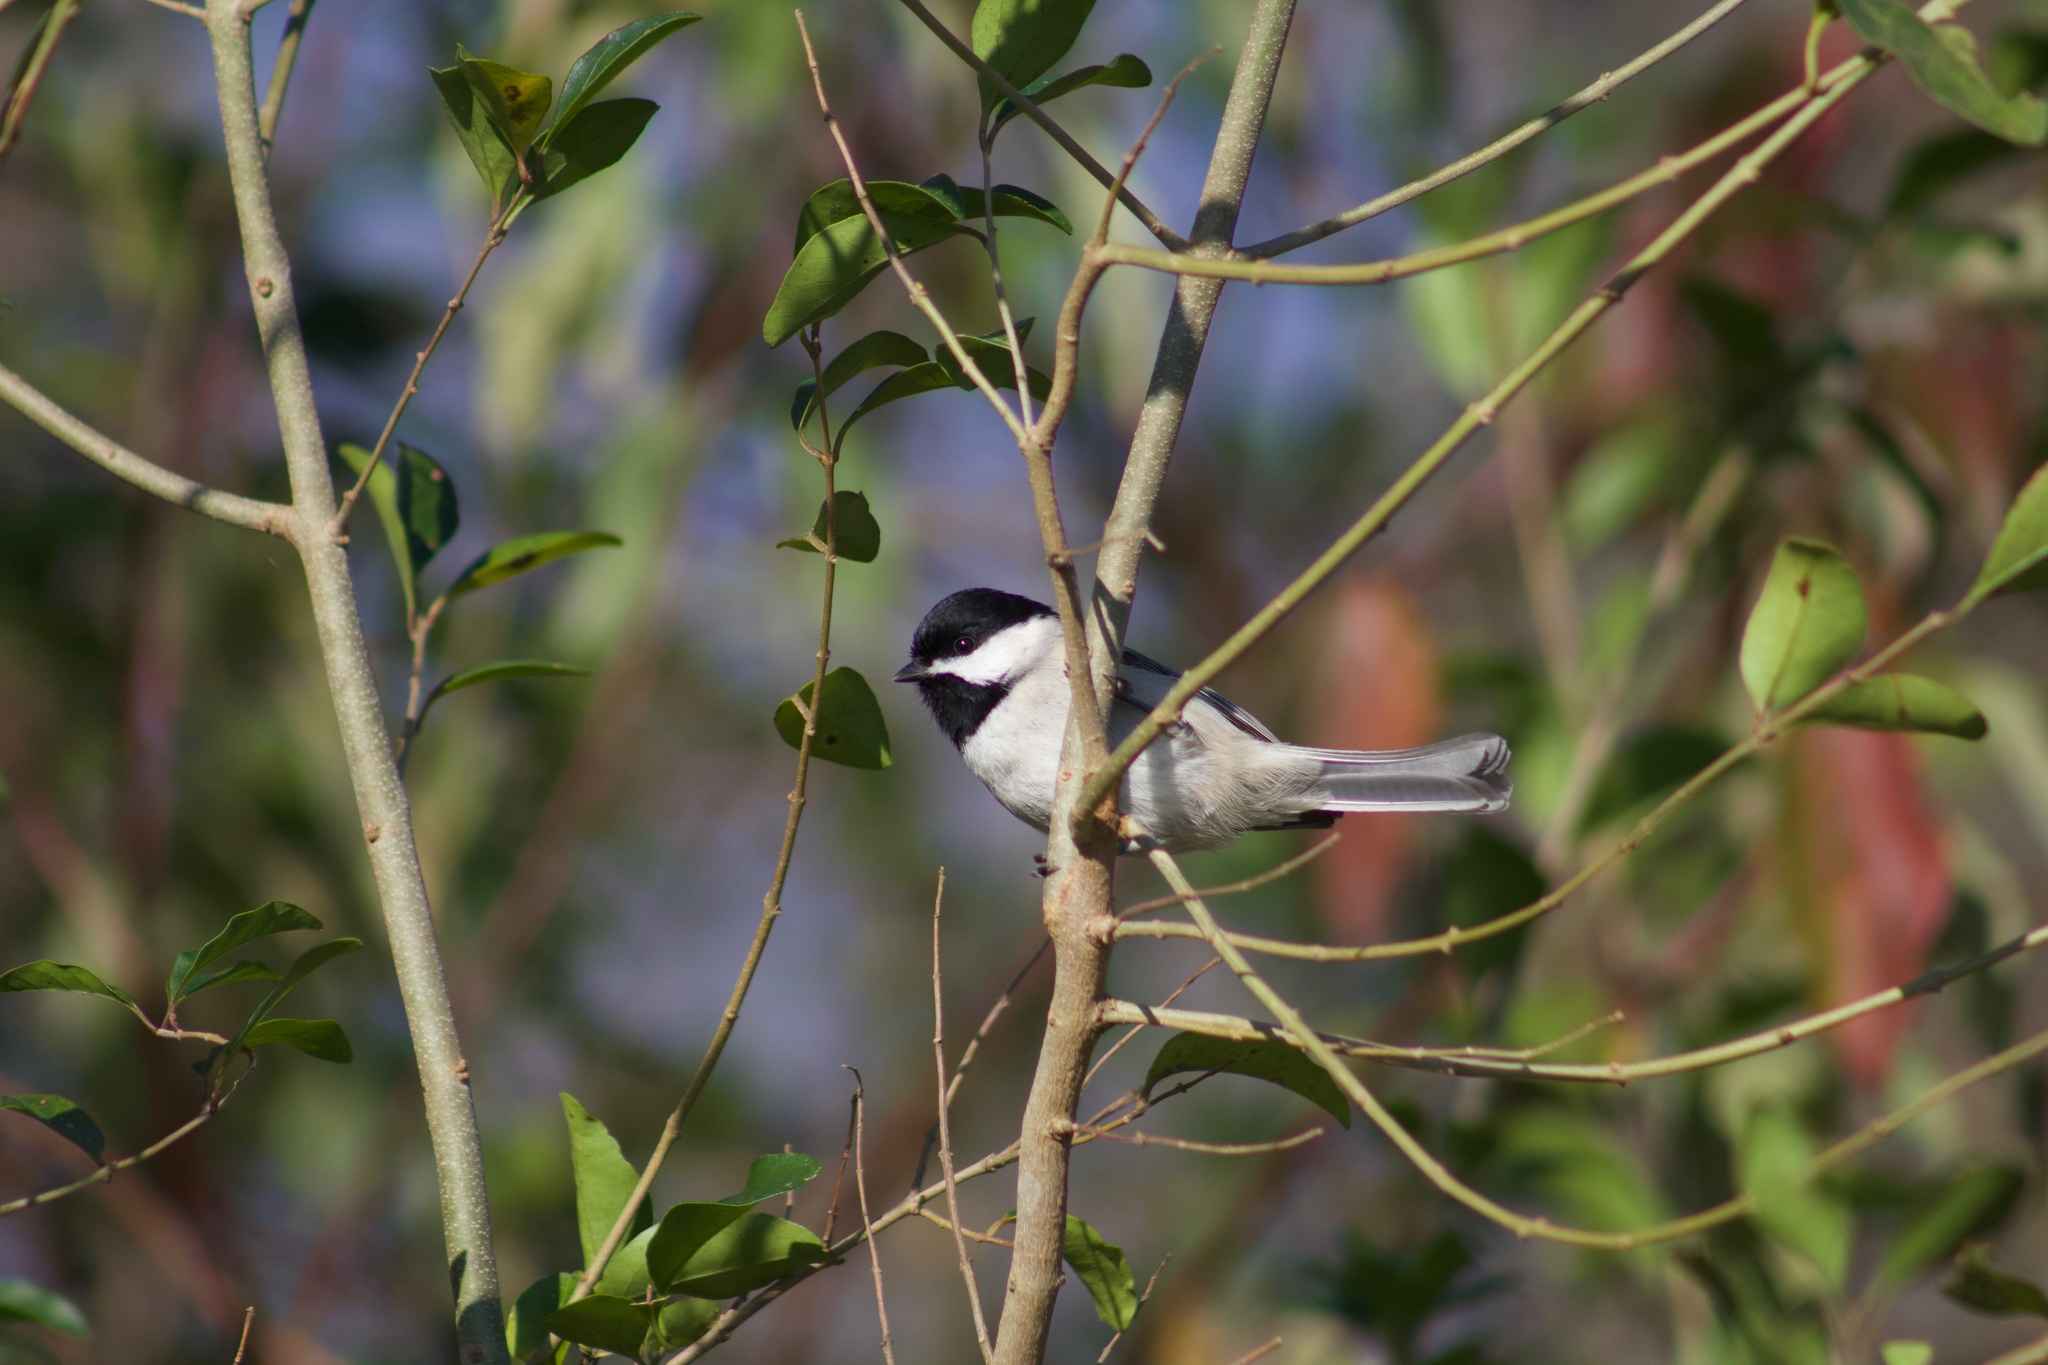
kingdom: Animalia
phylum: Chordata
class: Aves
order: Passeriformes
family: Paridae
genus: Poecile
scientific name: Poecile carolinensis
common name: Carolina chickadee
